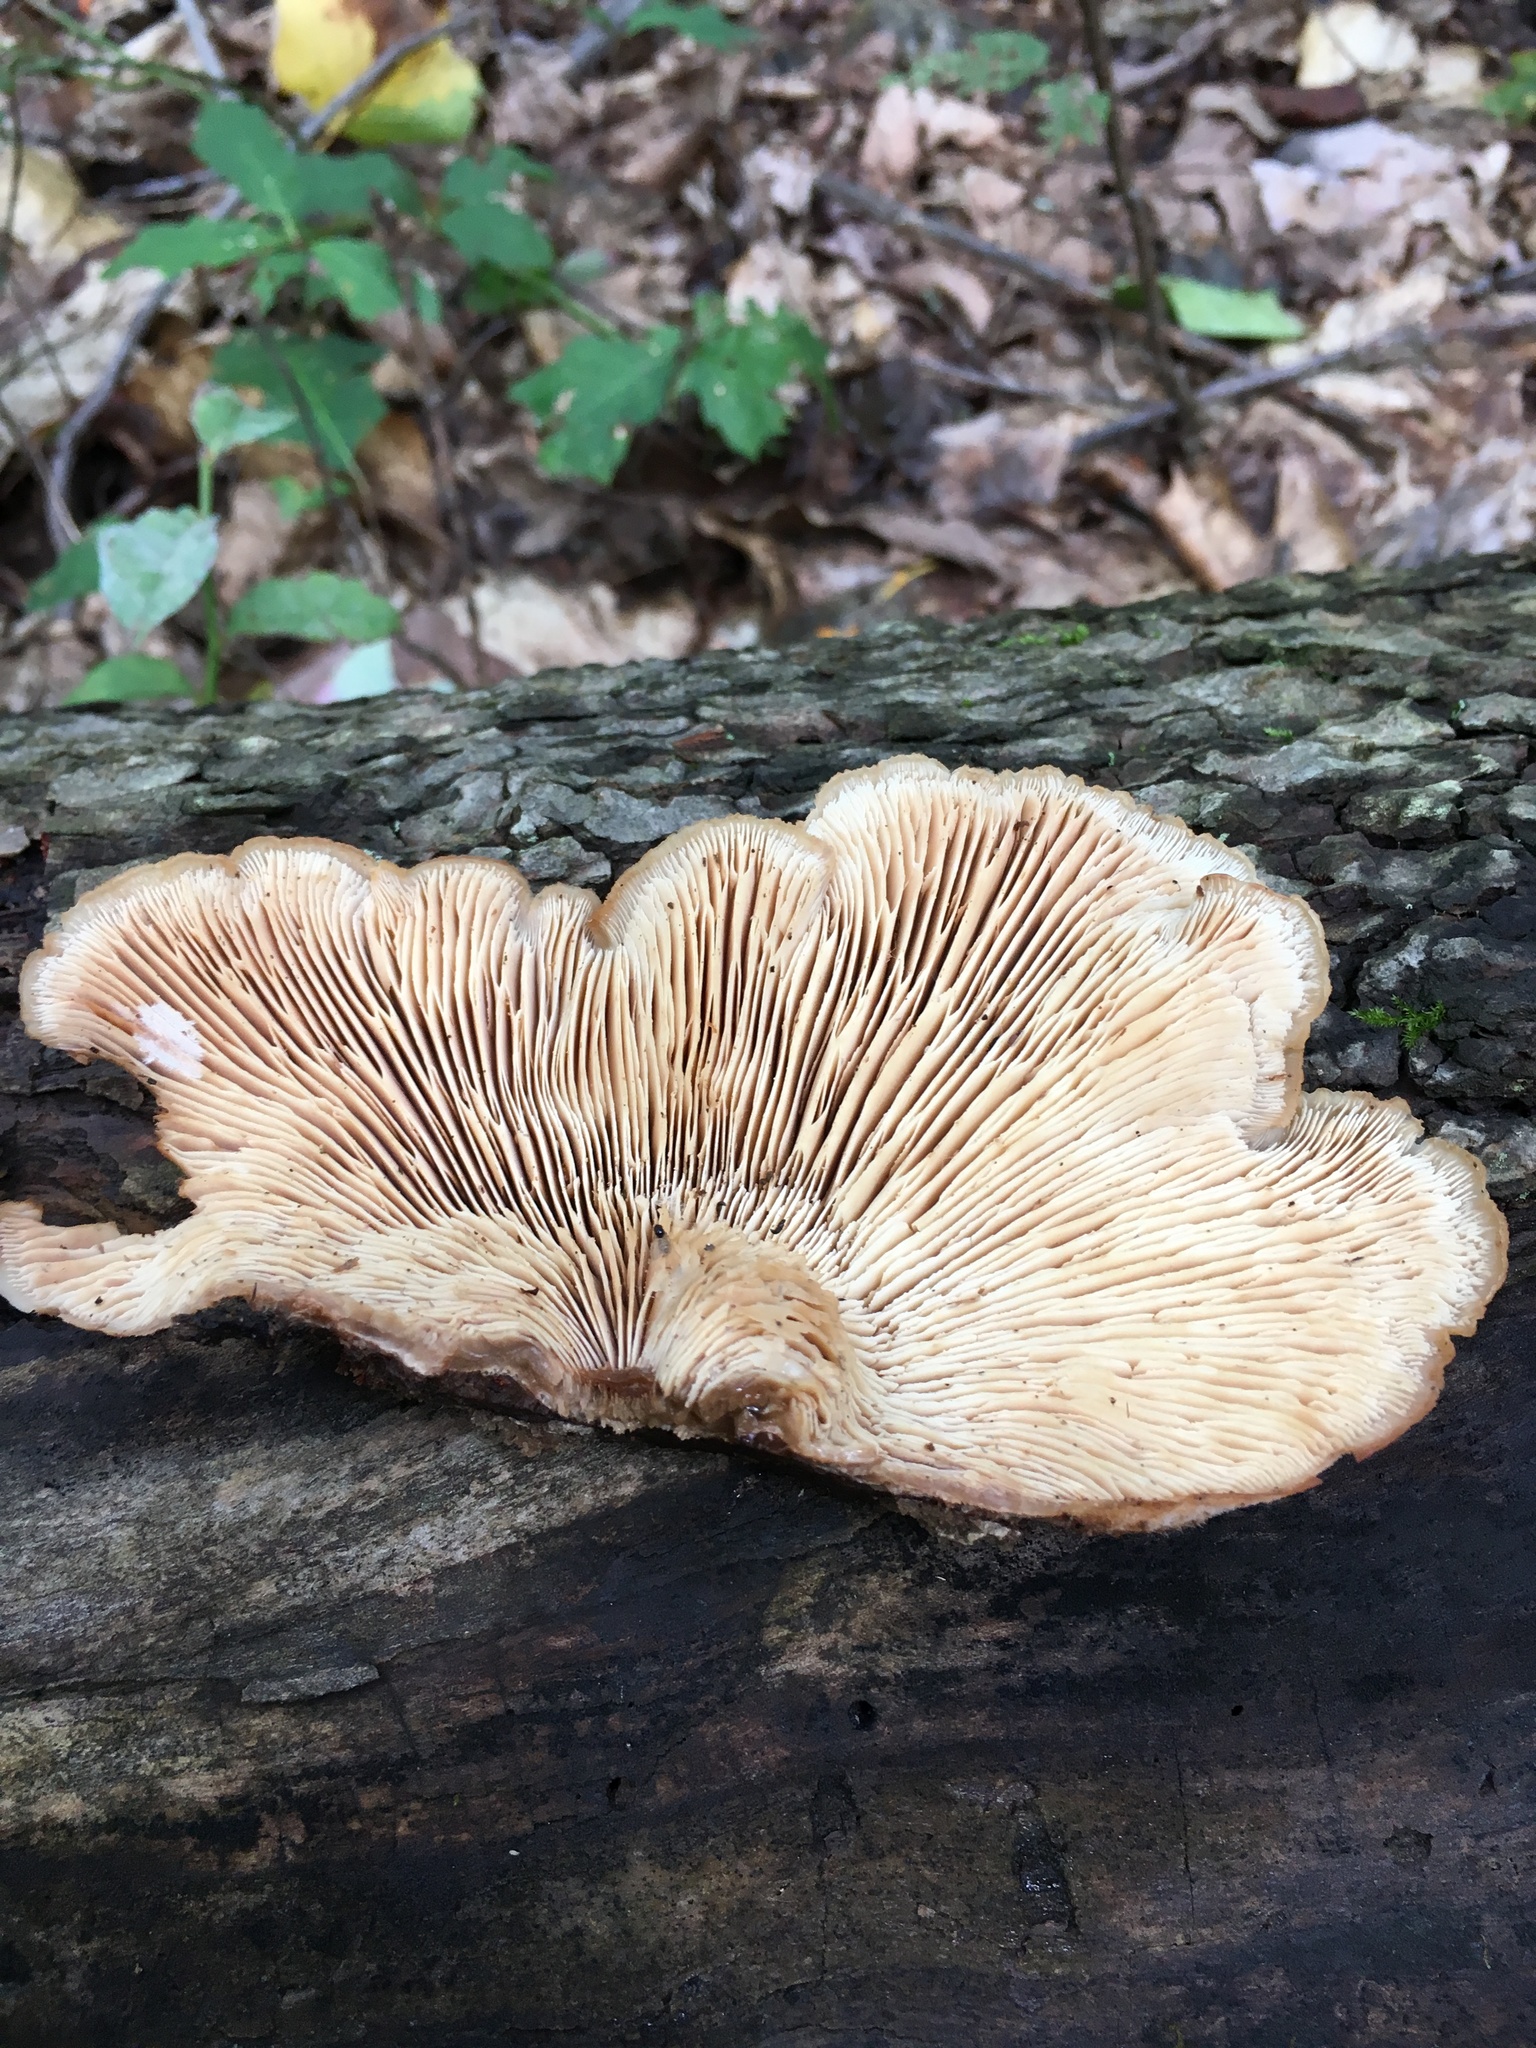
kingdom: Fungi
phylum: Basidiomycota
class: Agaricomycetes
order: Russulales
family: Auriscalpiaceae
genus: Lentinellus
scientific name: Lentinellus ursinus
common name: Bear lentinus
